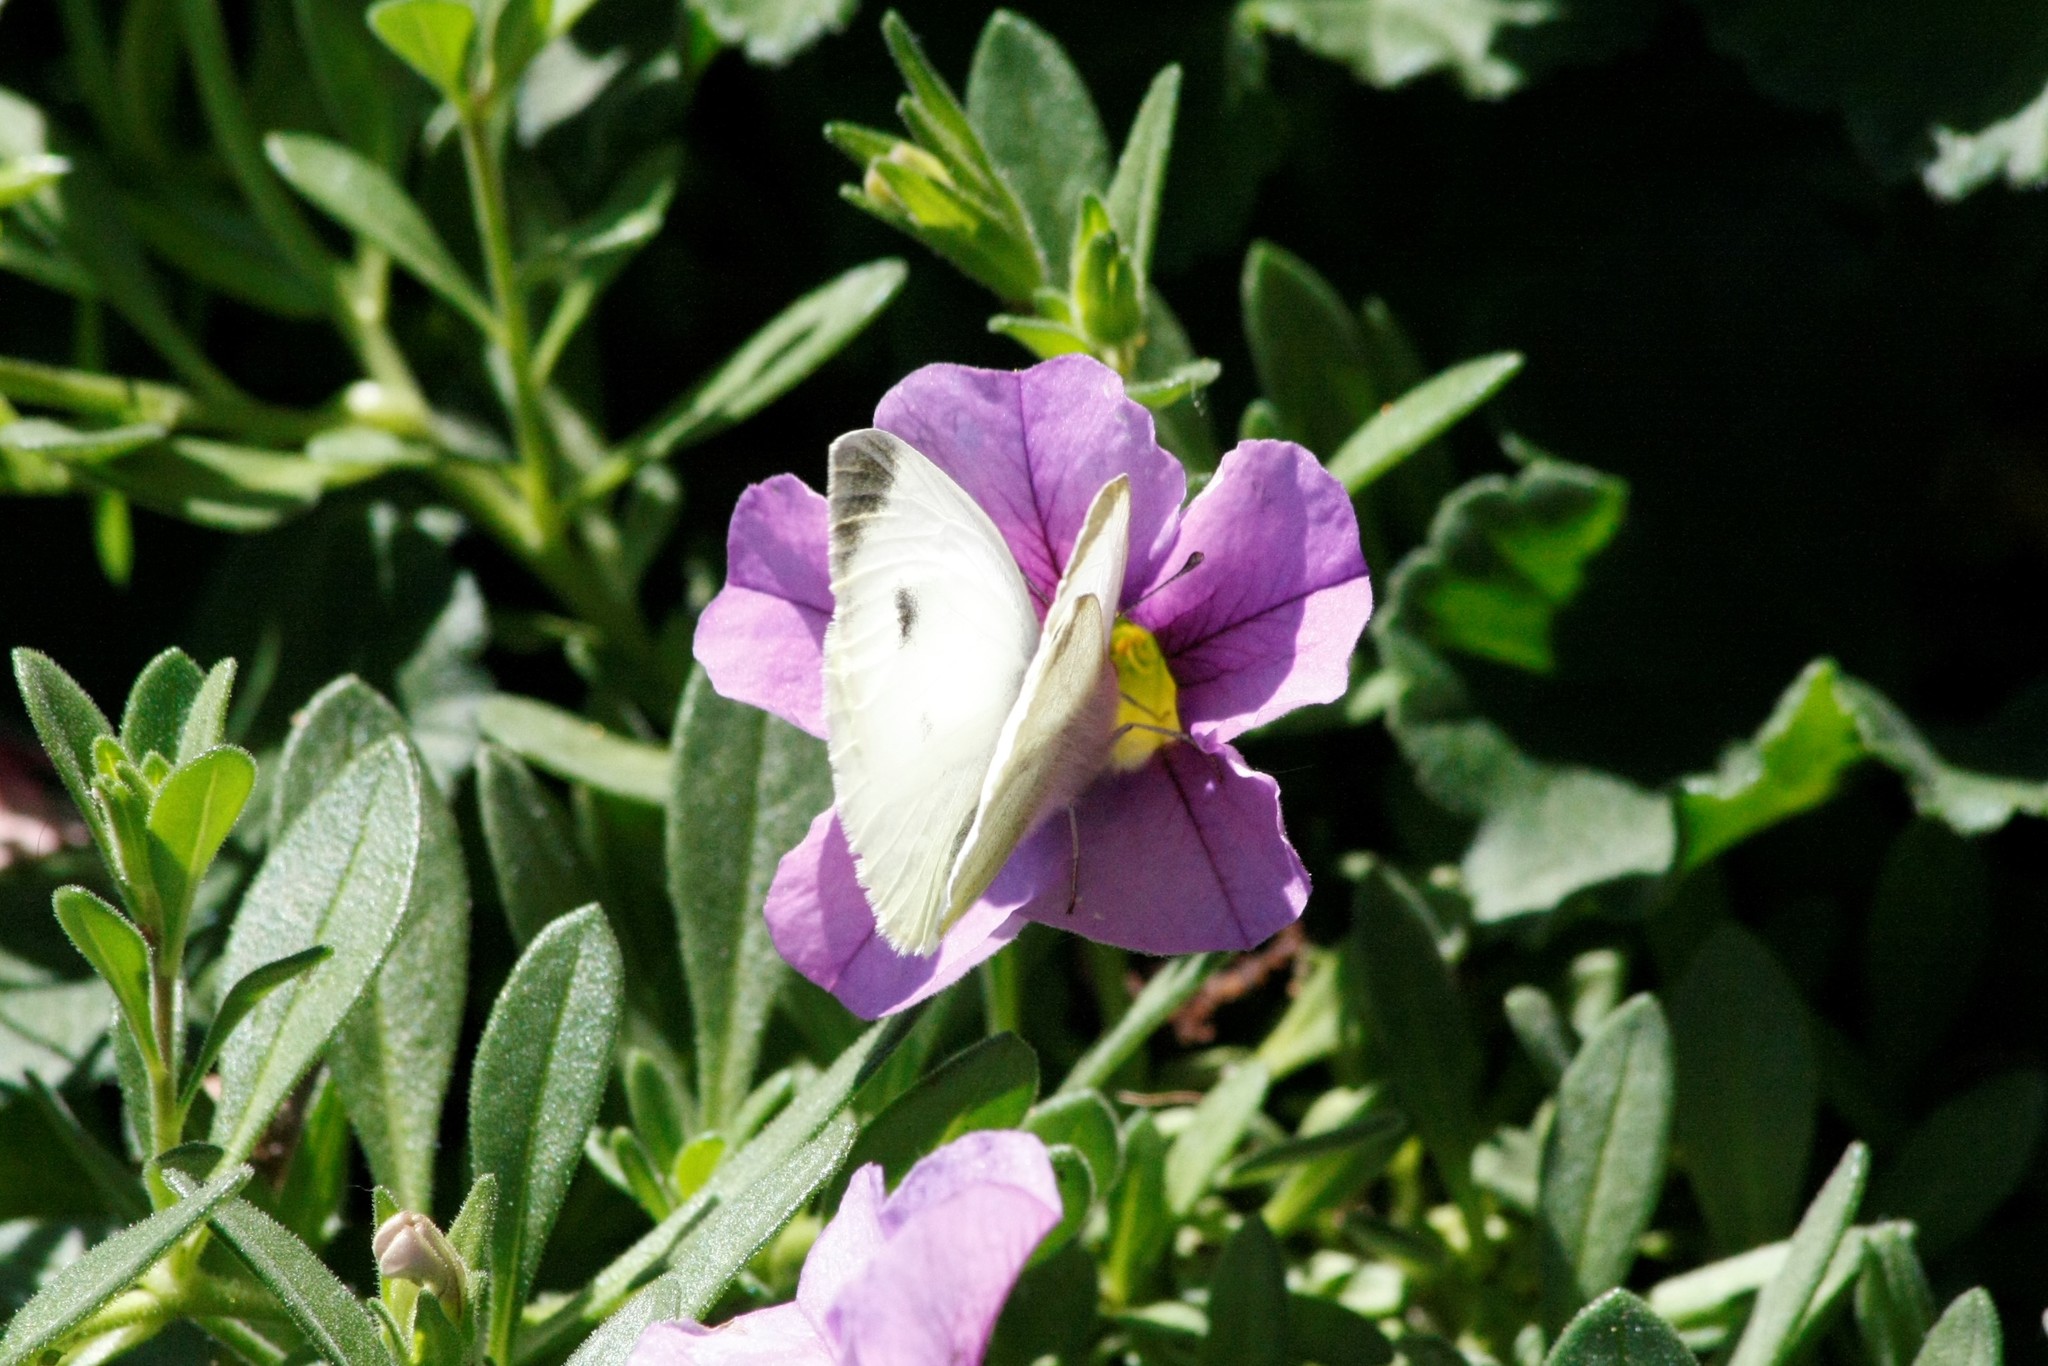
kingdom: Animalia
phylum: Arthropoda
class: Insecta
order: Lepidoptera
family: Pieridae
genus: Pieris
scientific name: Pieris rapae
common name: Small white
